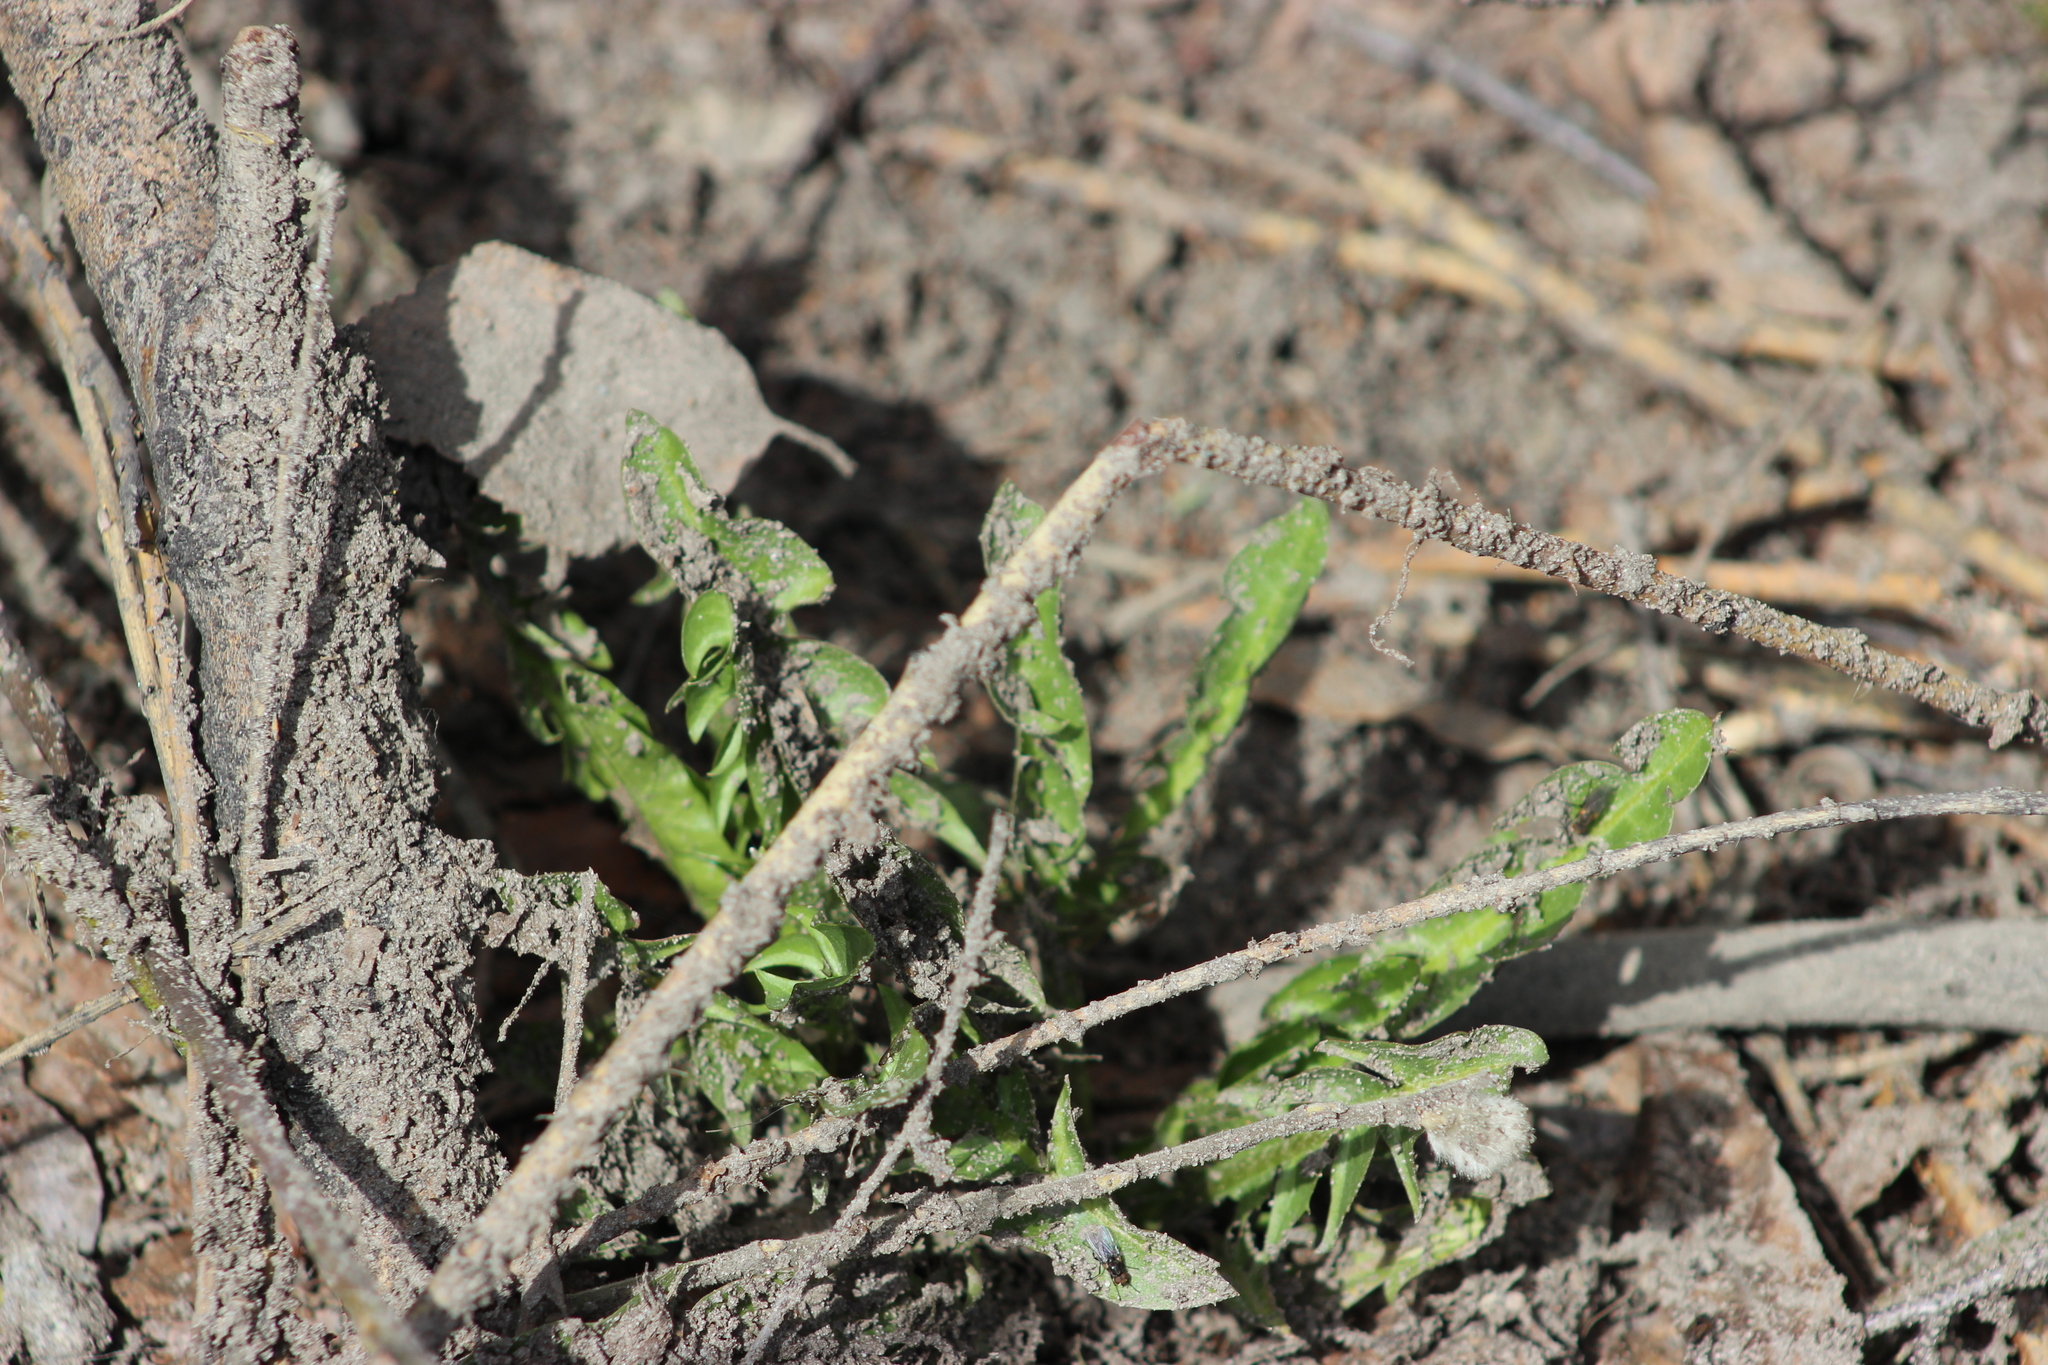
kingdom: Plantae
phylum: Tracheophyta
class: Magnoliopsida
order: Asterales
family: Asteraceae
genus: Taraxacum
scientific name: Taraxacum officinale
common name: Common dandelion
